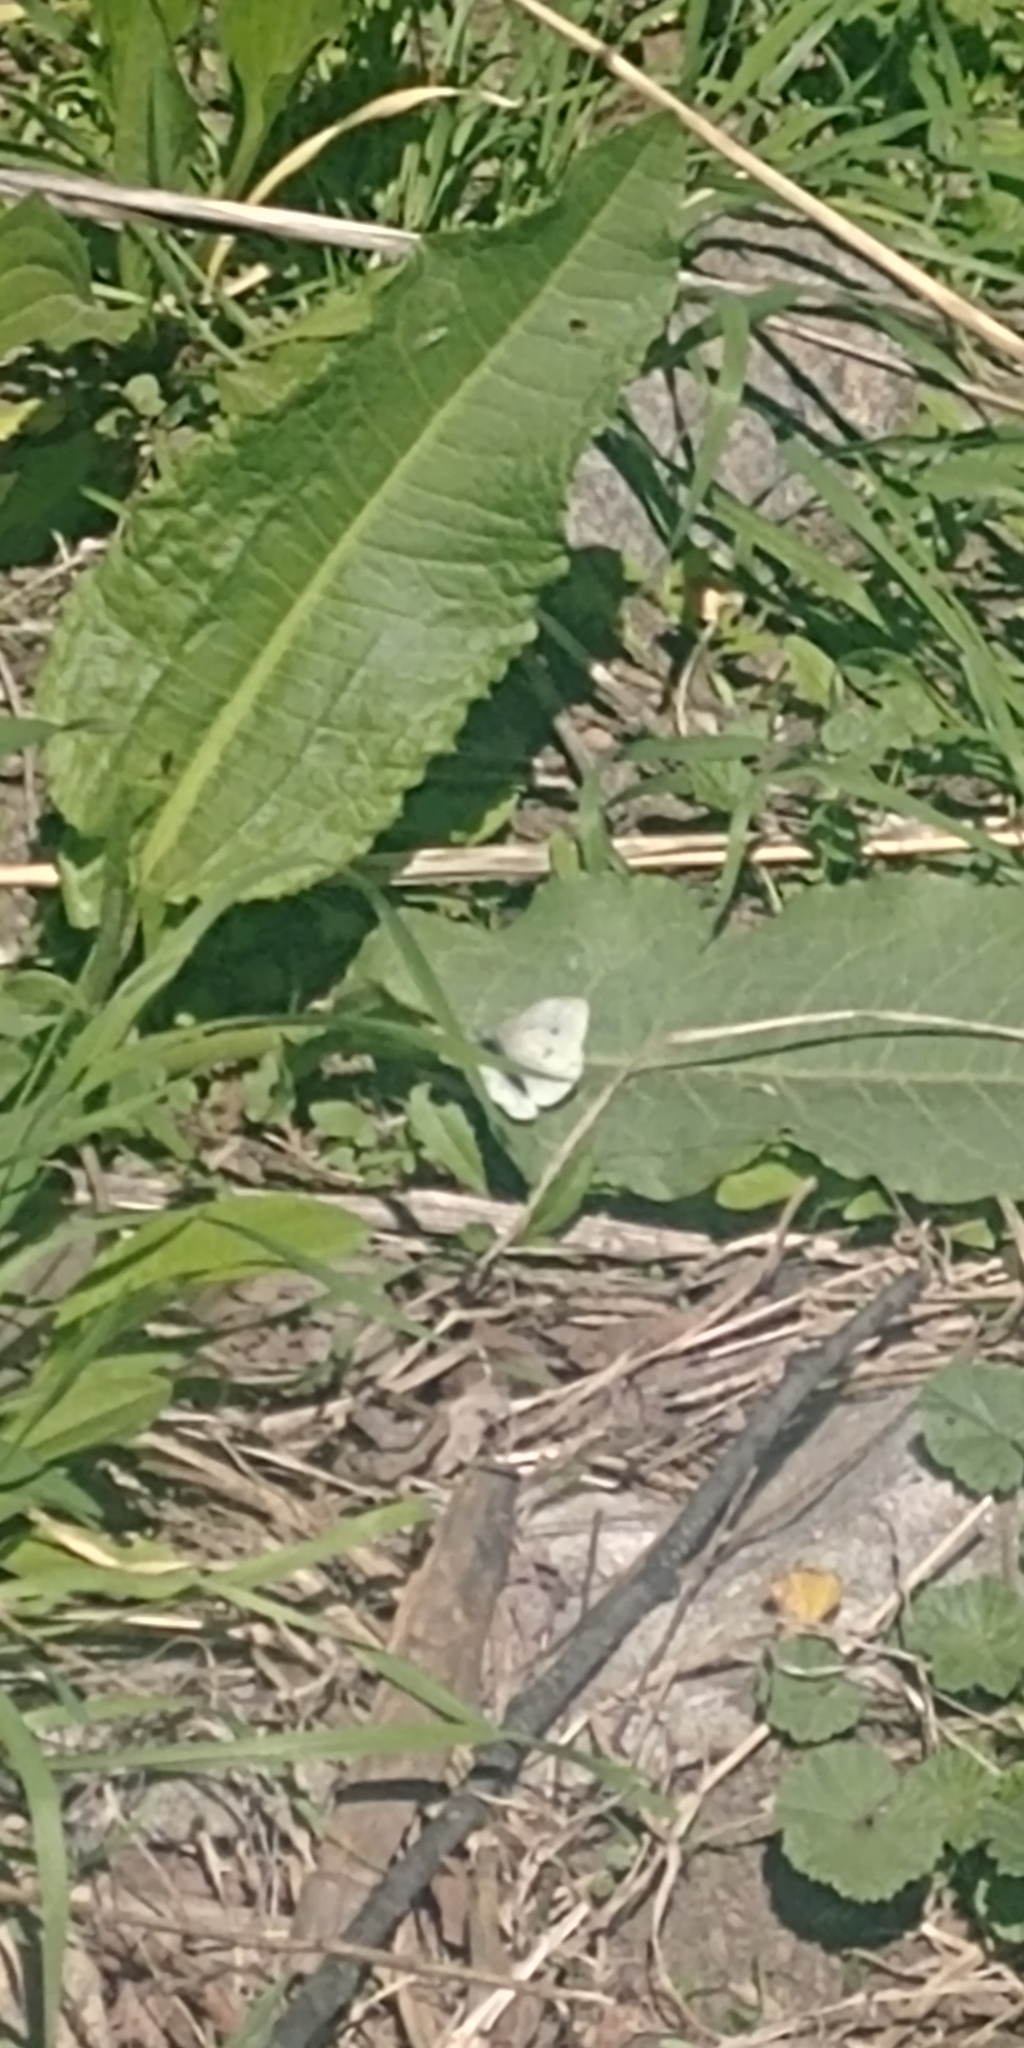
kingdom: Animalia
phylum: Arthropoda
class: Insecta
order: Lepidoptera
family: Pieridae
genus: Pieris
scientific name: Pieris rapae
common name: Small white
